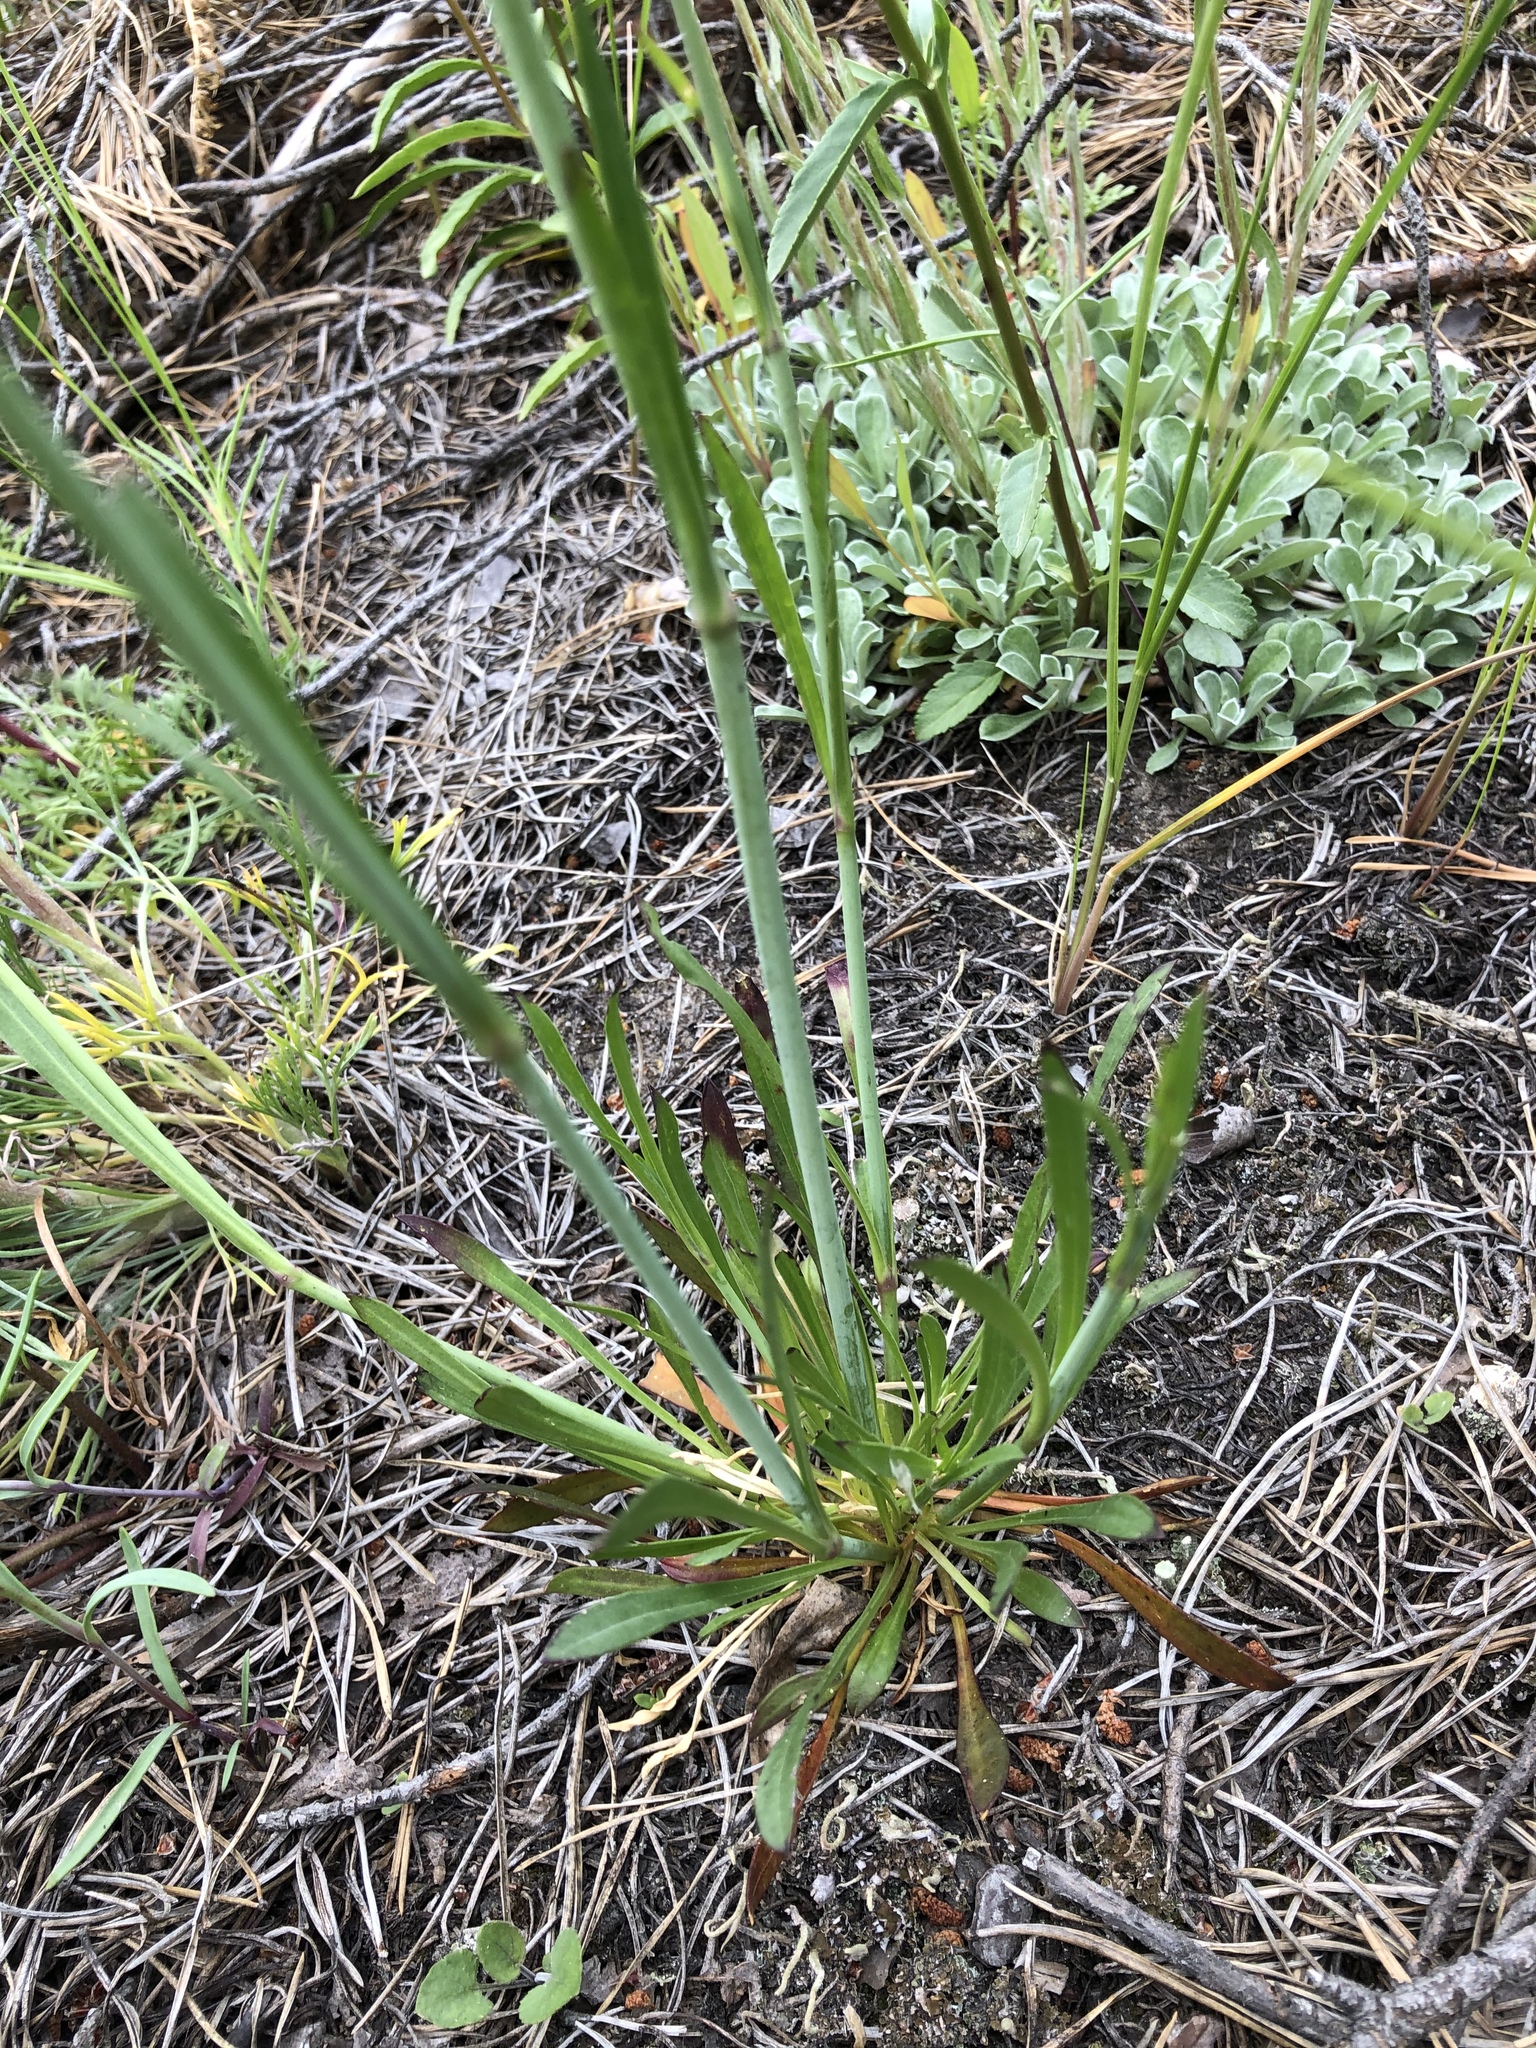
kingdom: Plantae
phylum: Tracheophyta
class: Magnoliopsida
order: Caryophyllales
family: Caryophyllaceae
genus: Silene
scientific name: Silene chlorantha
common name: Yellowgreen catchfly
